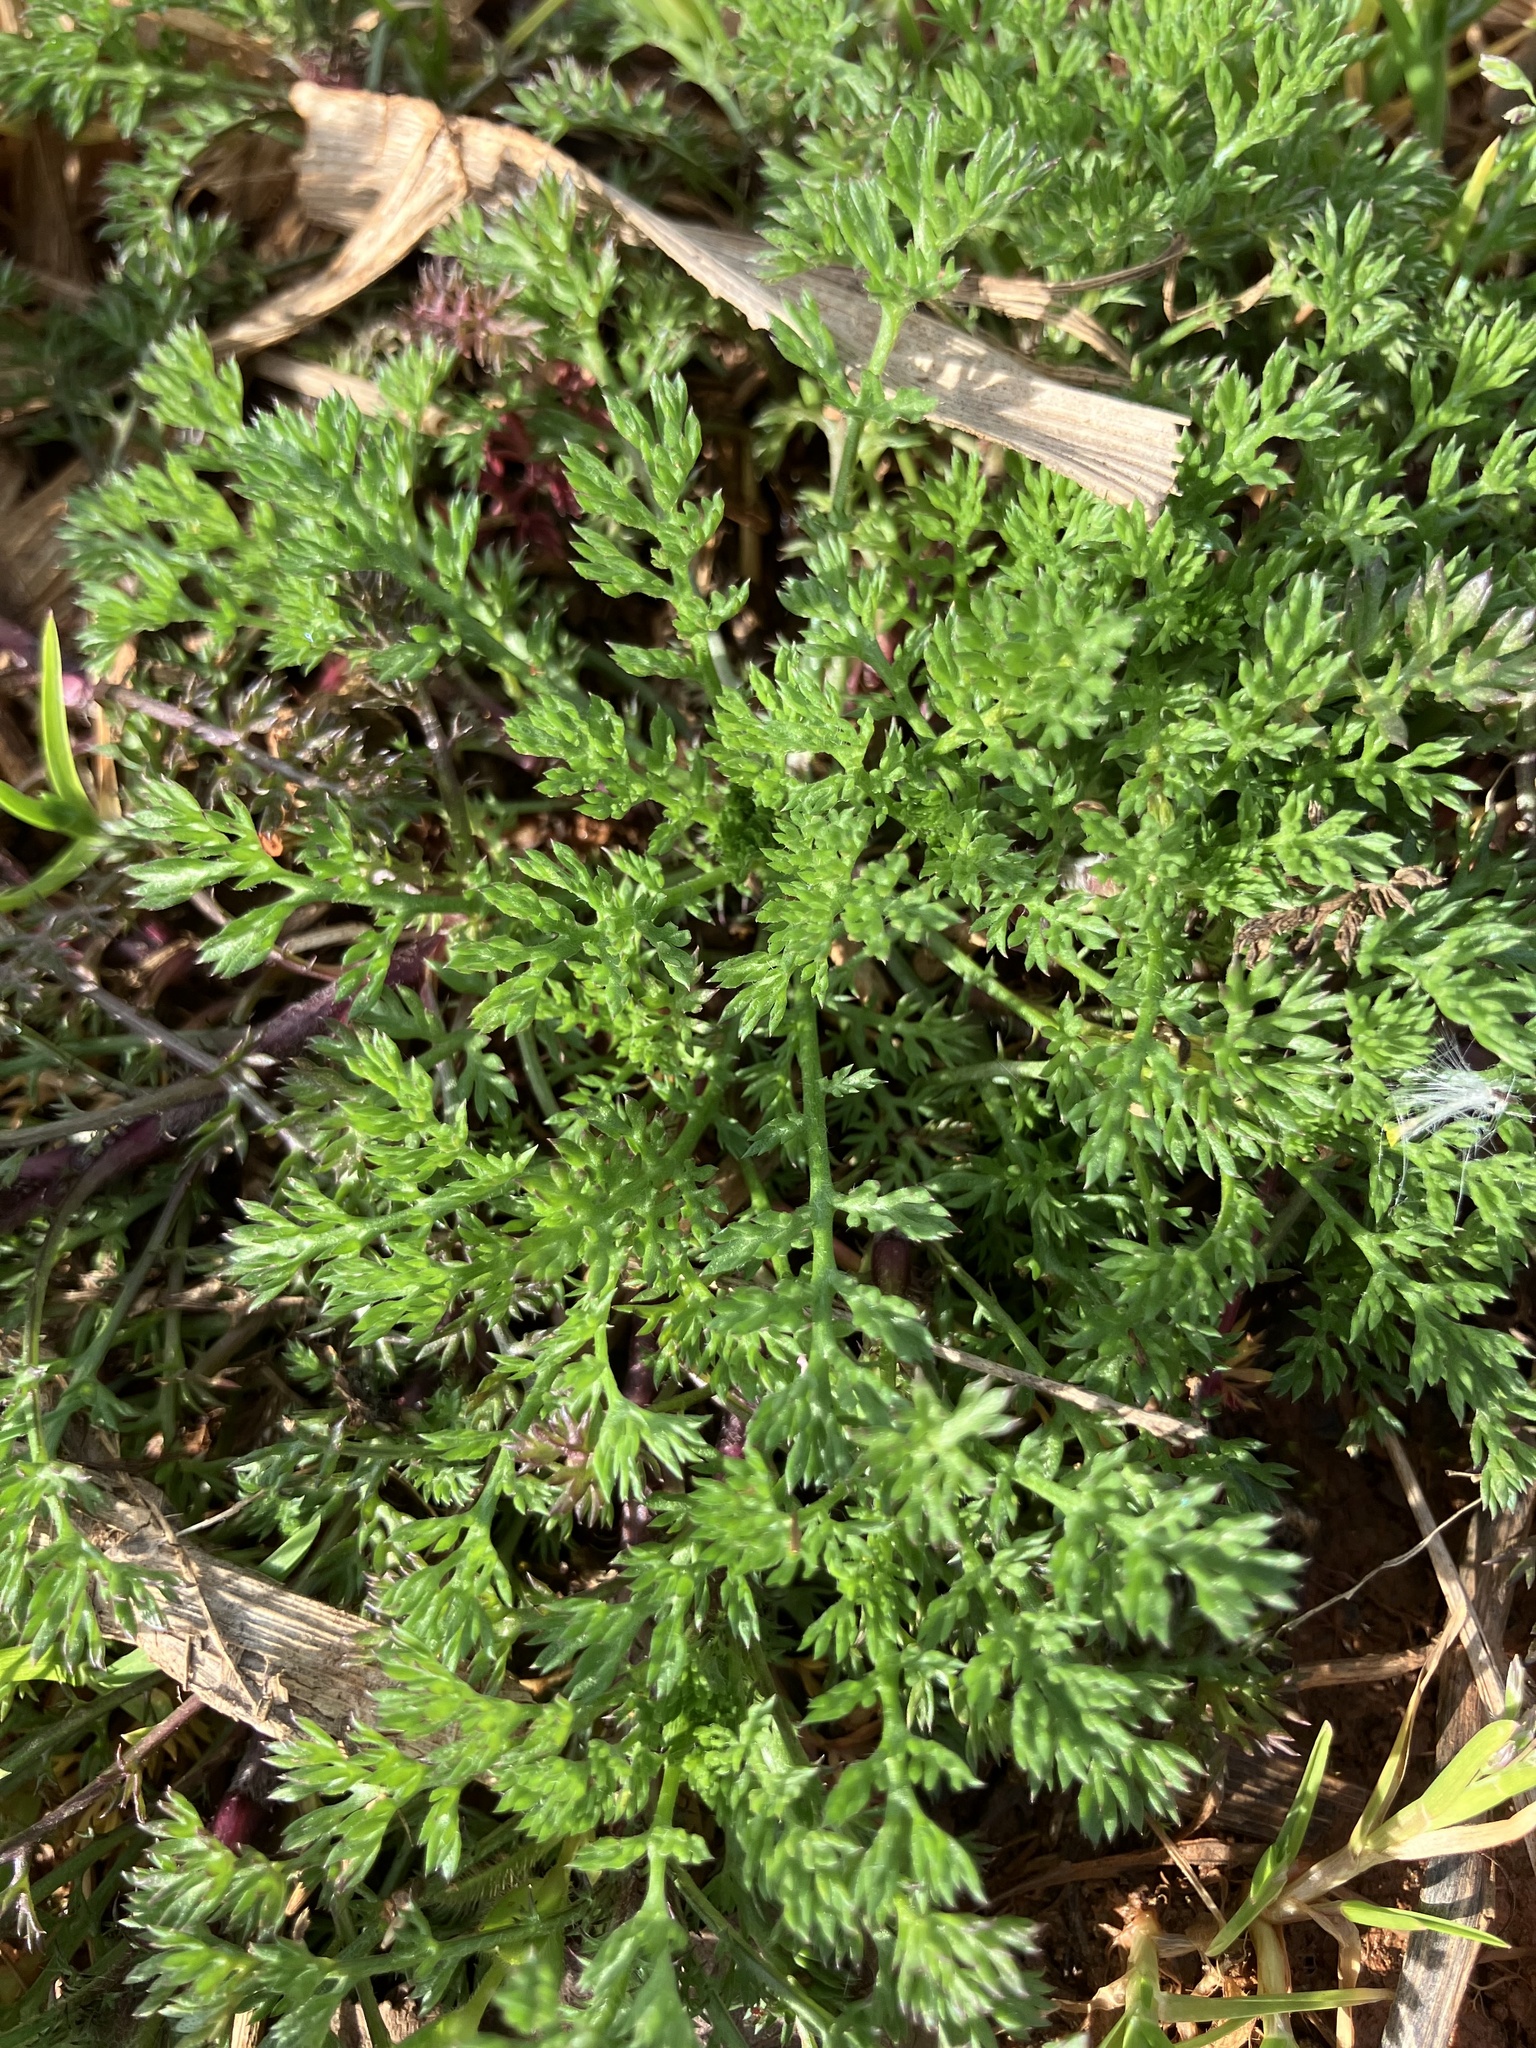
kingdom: Plantae
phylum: Tracheophyta
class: Magnoliopsida
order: Asterales
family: Asteraceae
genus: Soliva
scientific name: Soliva sessilis
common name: Field burrweed
